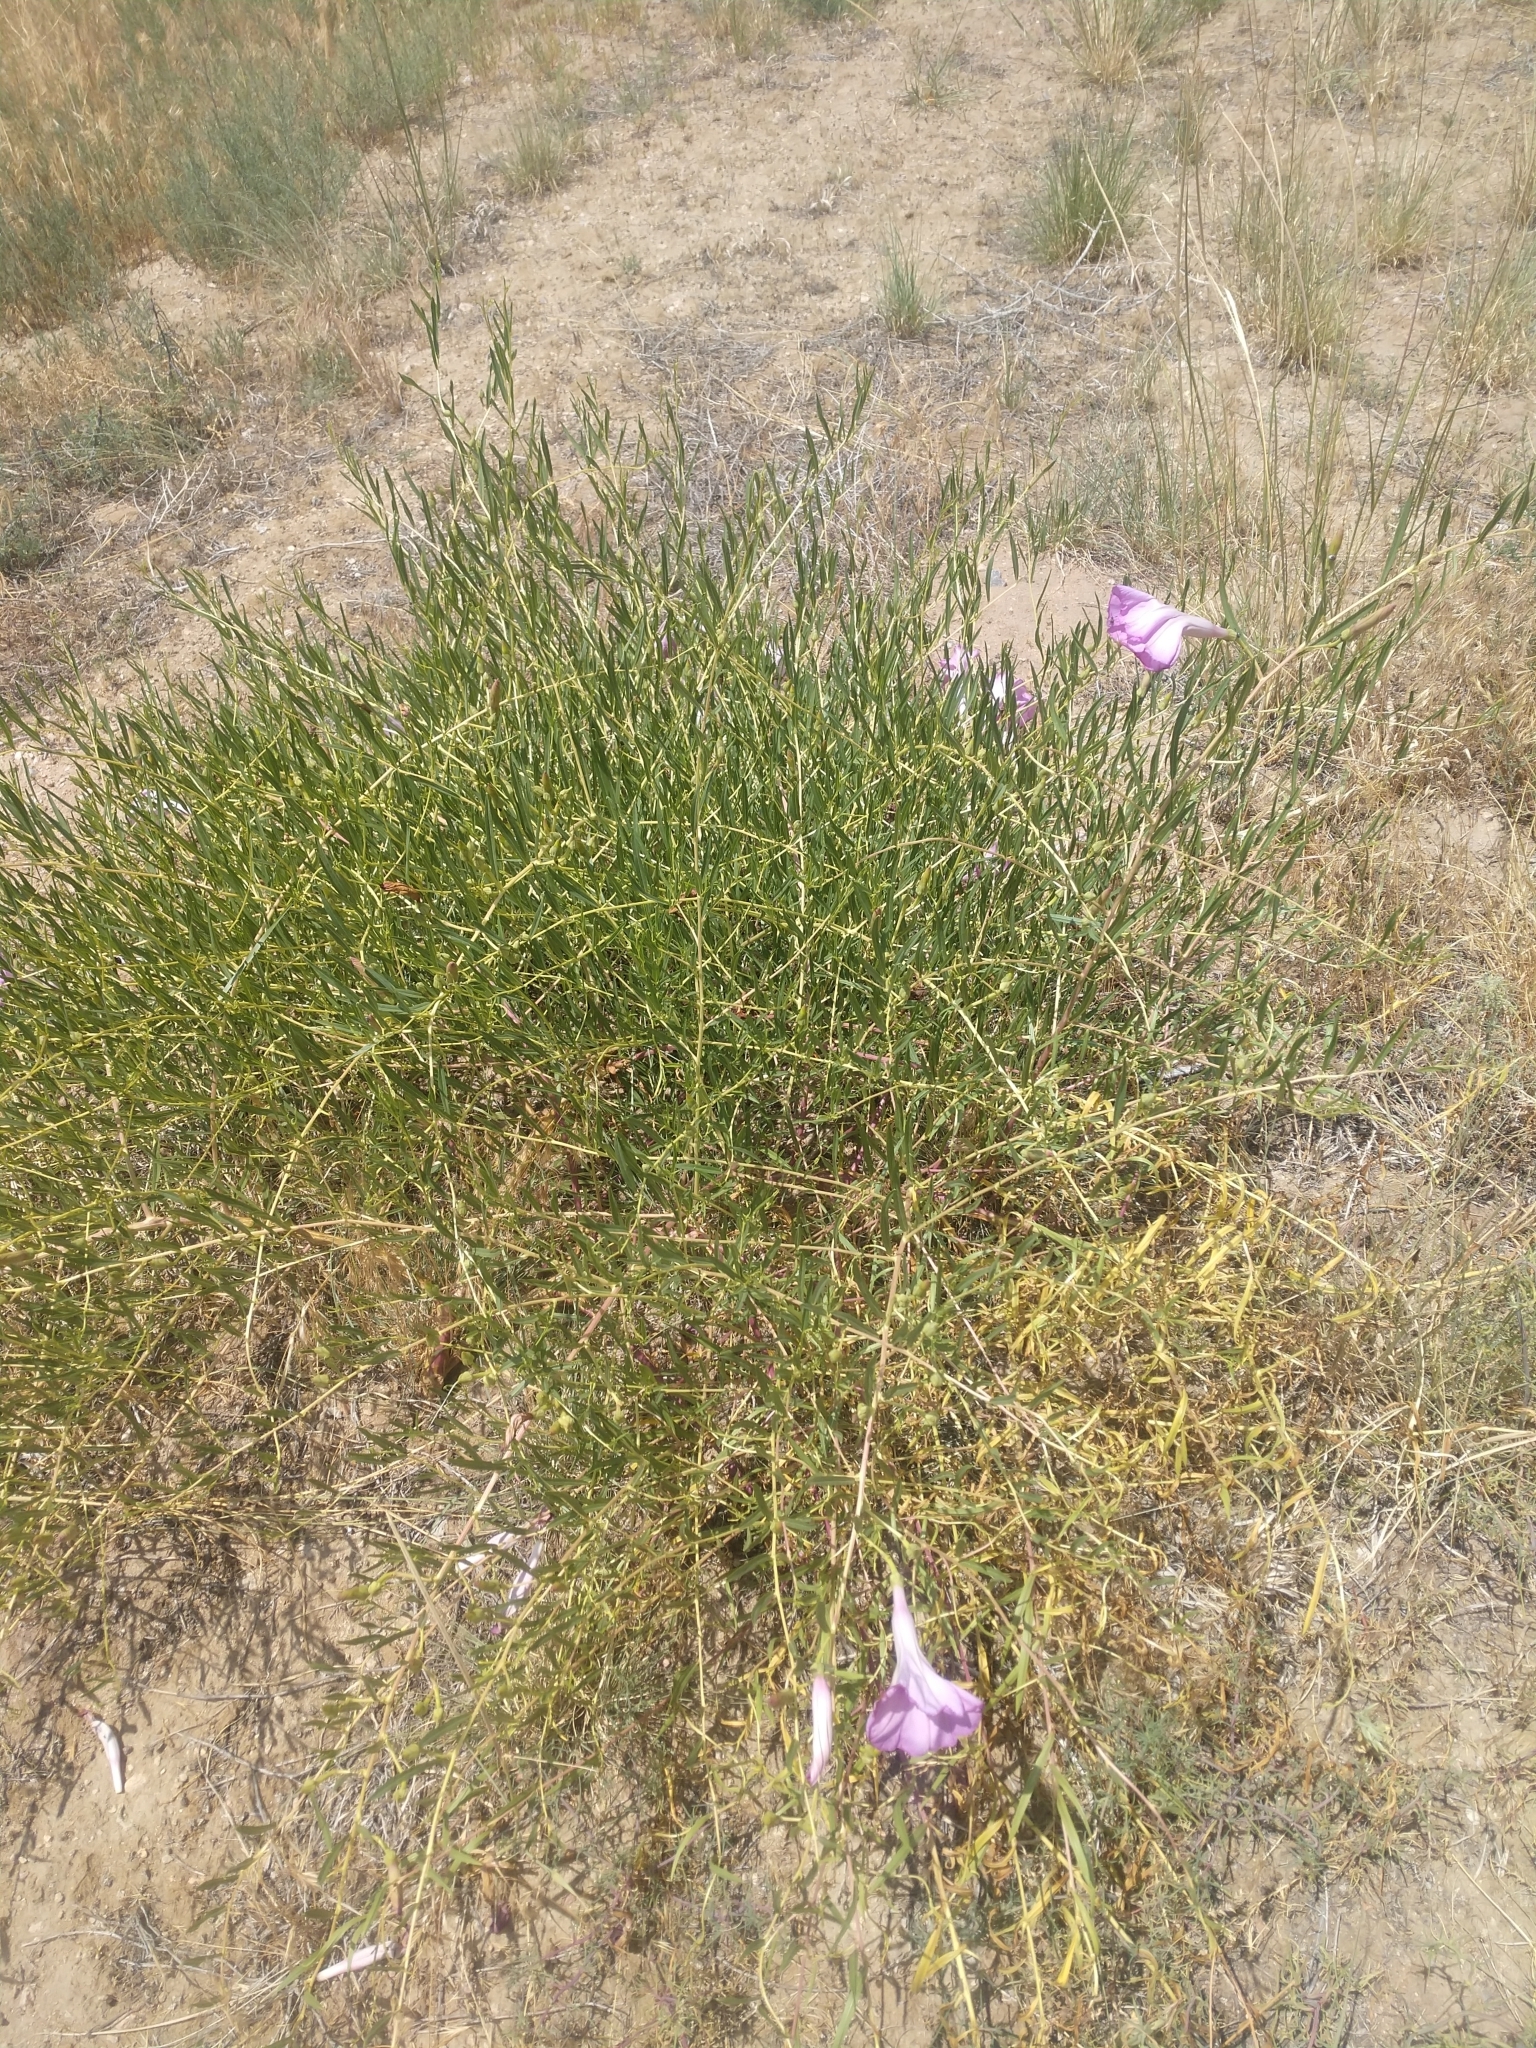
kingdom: Plantae
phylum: Tracheophyta
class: Magnoliopsida
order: Solanales
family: Convolvulaceae
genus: Ipomoea
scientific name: Ipomoea leptophylla
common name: Bush moonflower
